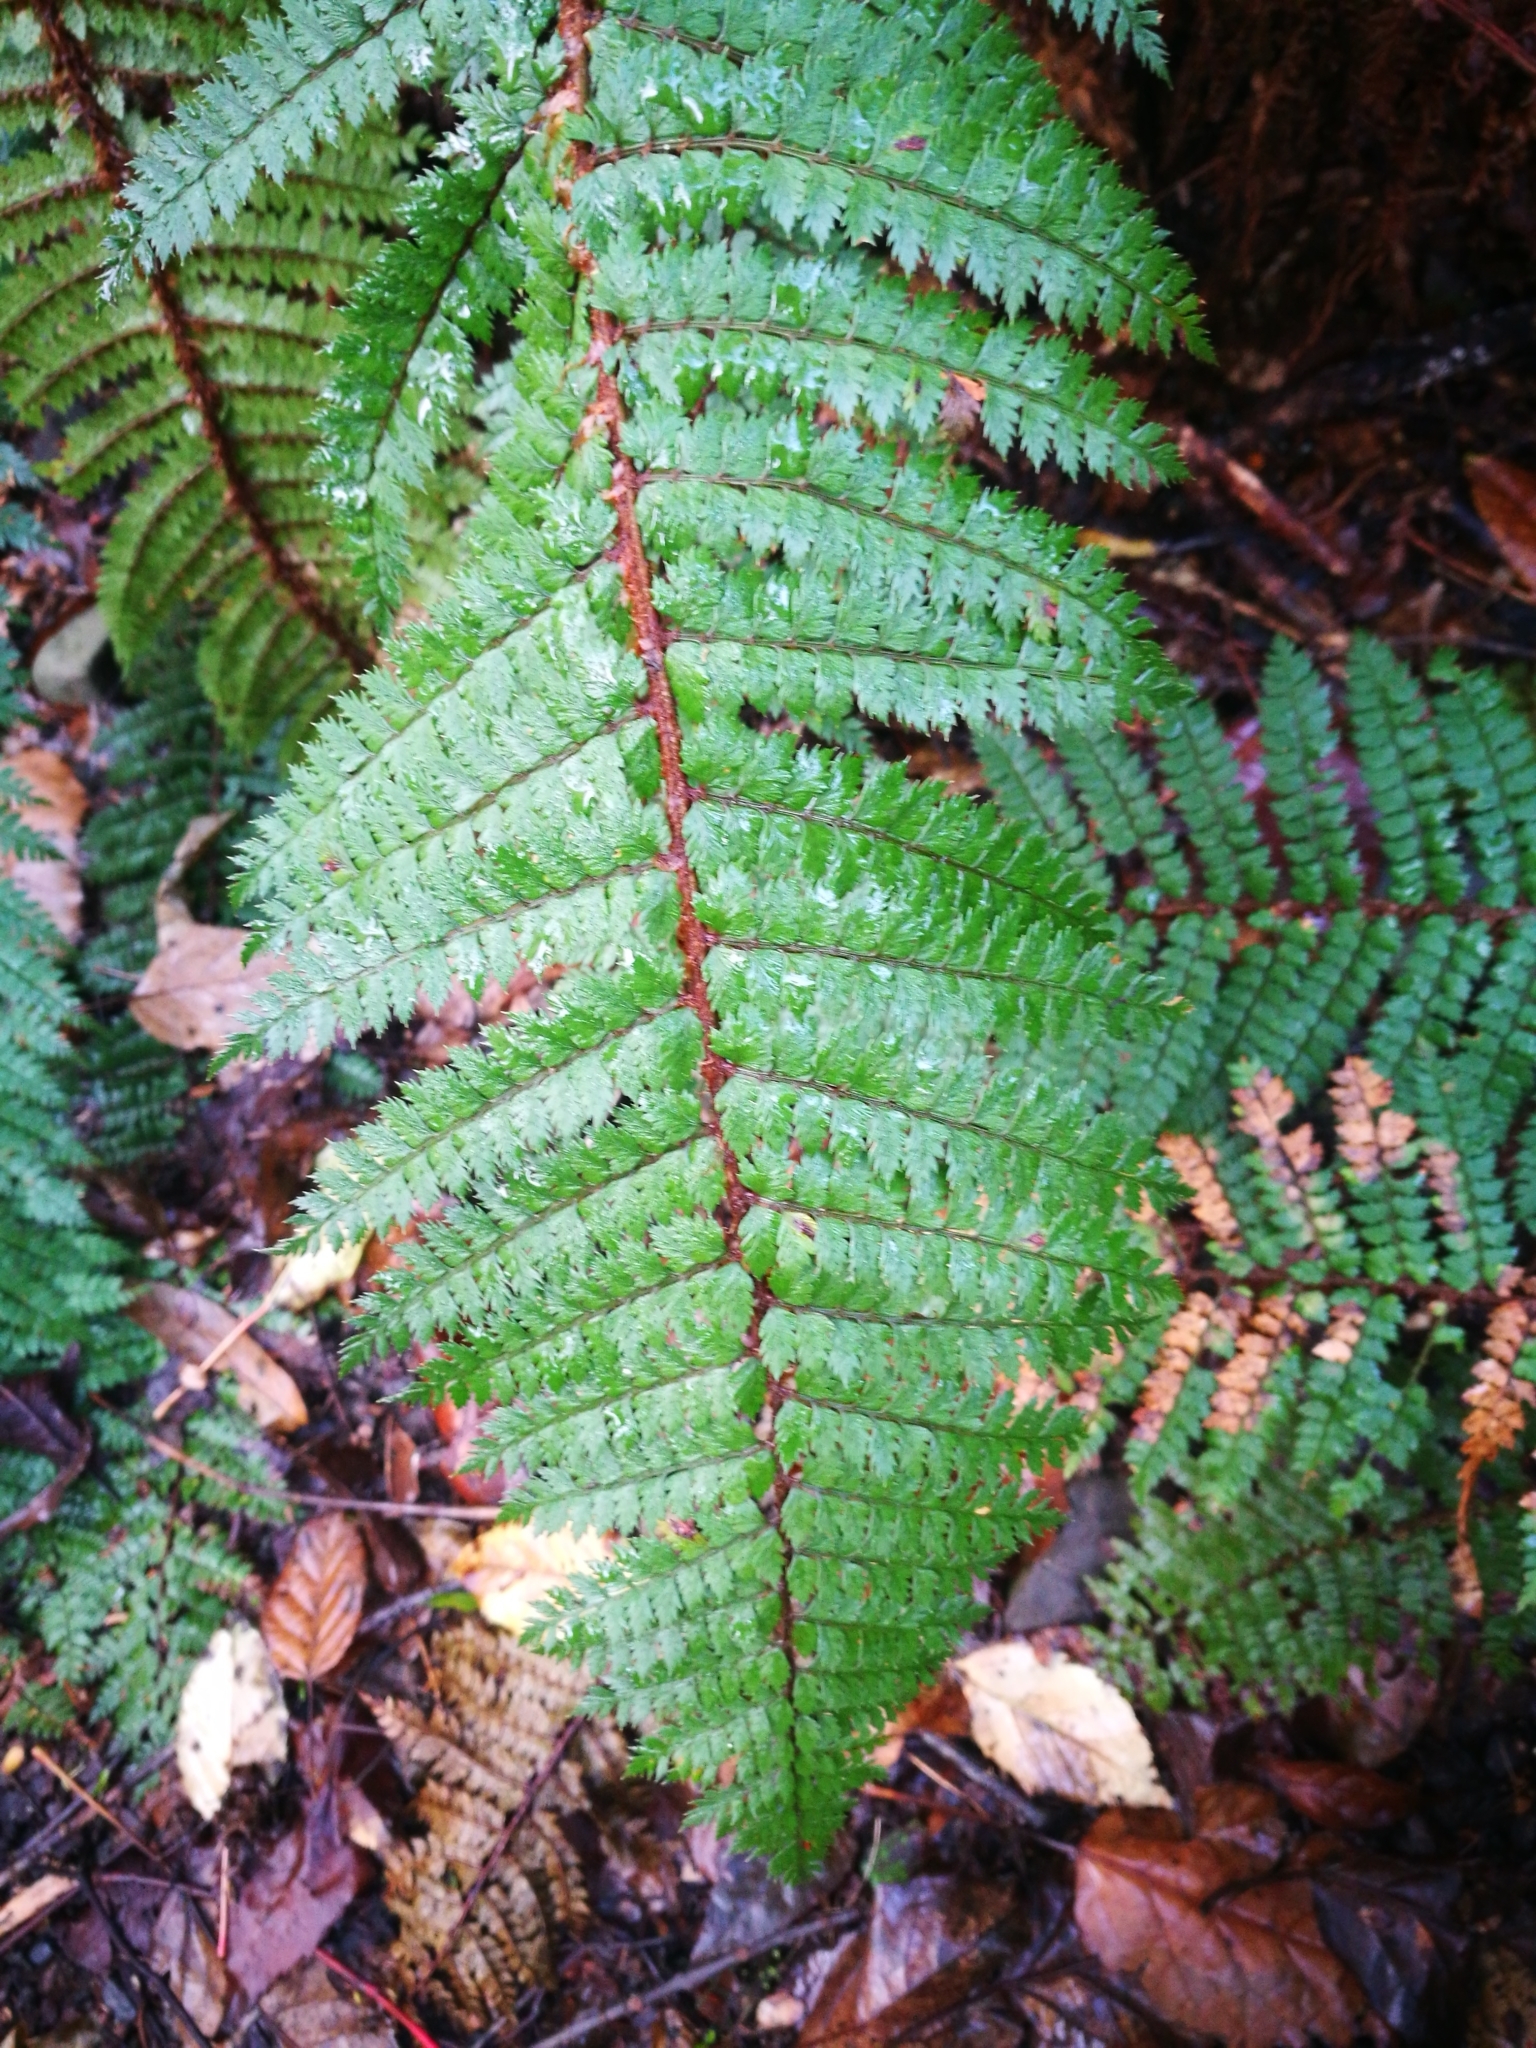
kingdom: Plantae
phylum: Tracheophyta
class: Polypodiopsida
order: Polypodiales
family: Dryopteridaceae
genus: Polystichum
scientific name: Polystichum vestitum
